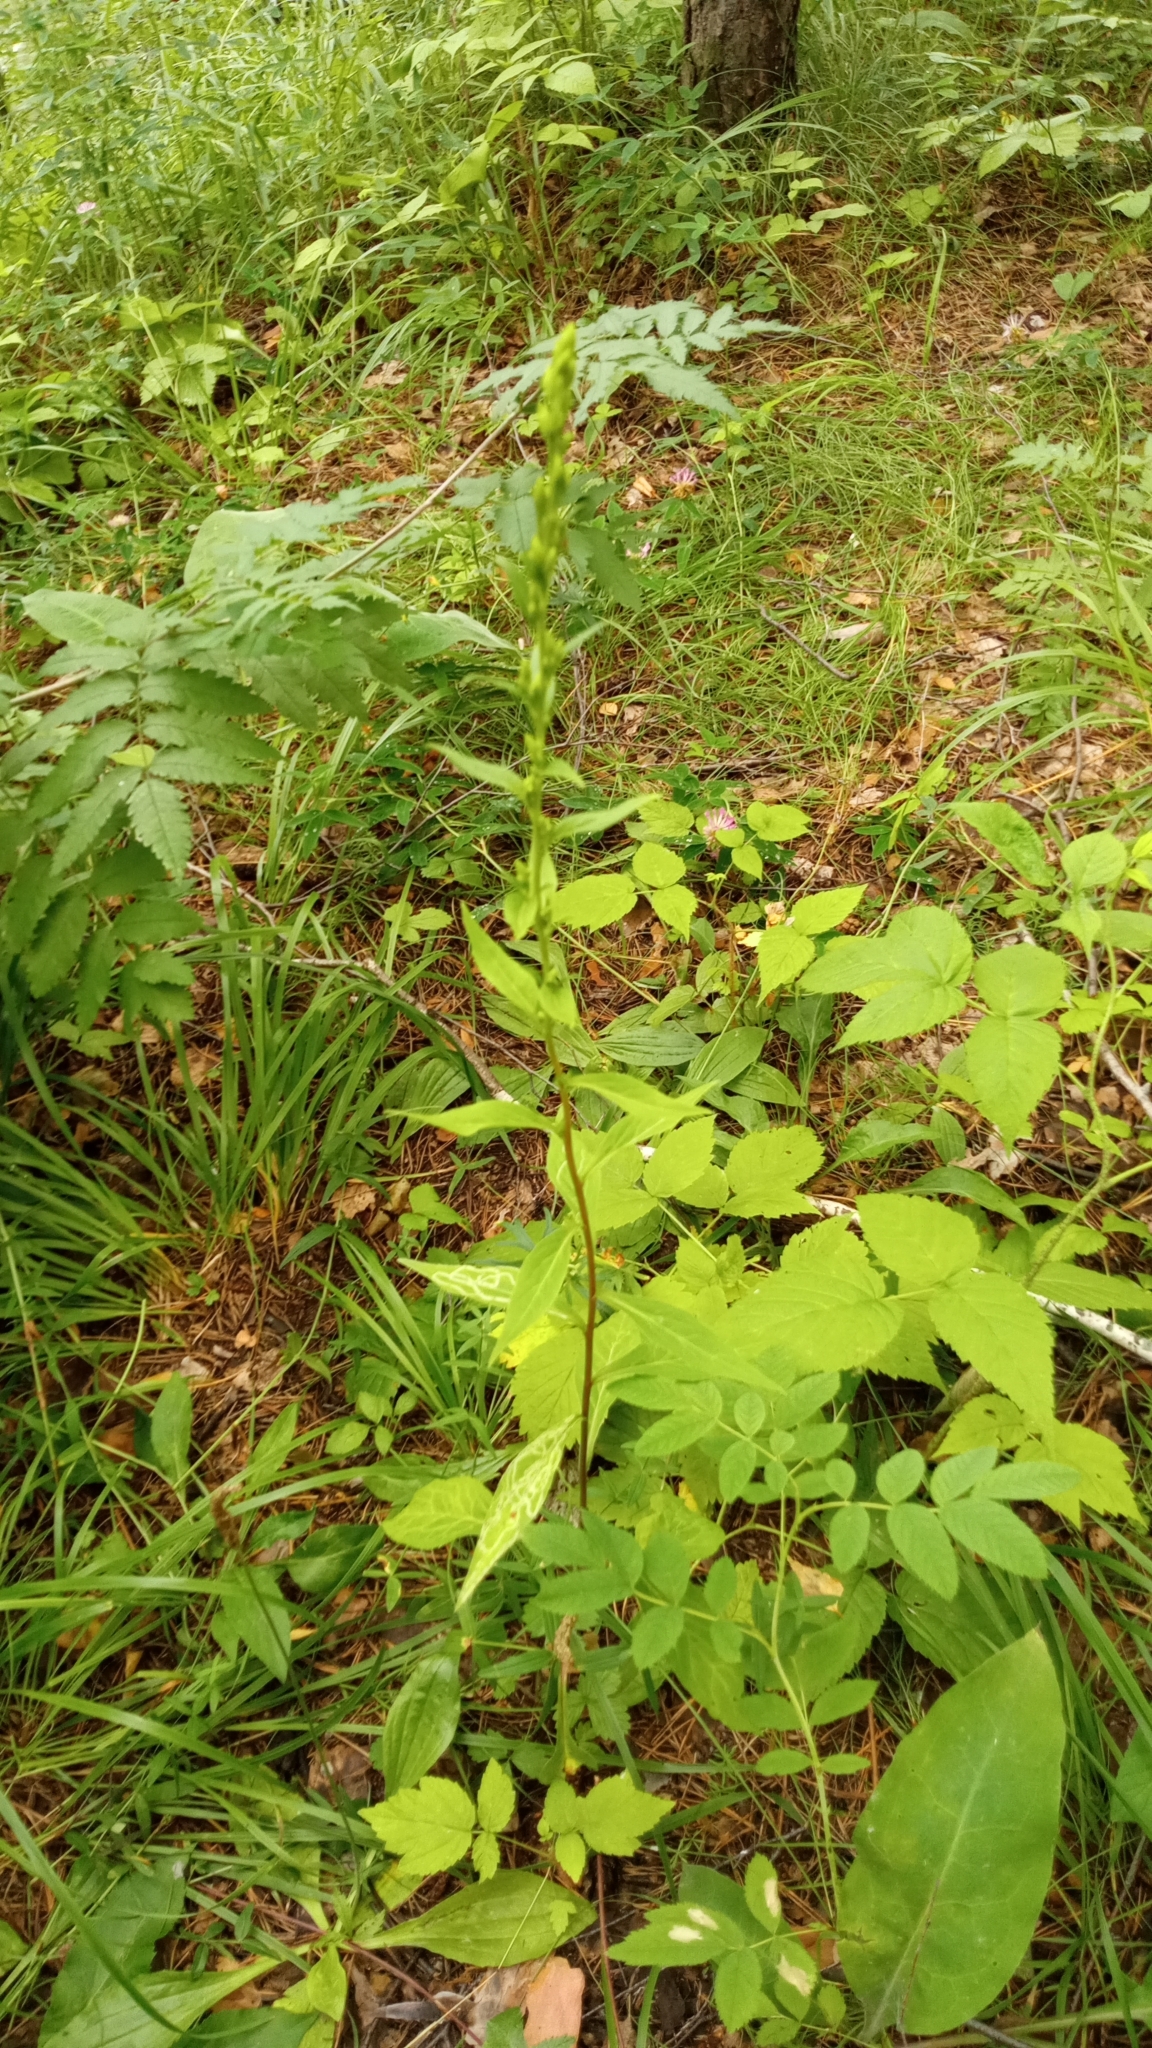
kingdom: Plantae
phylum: Tracheophyta
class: Magnoliopsida
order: Asterales
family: Asteraceae
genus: Solidago
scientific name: Solidago virgaurea
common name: Goldenrod
